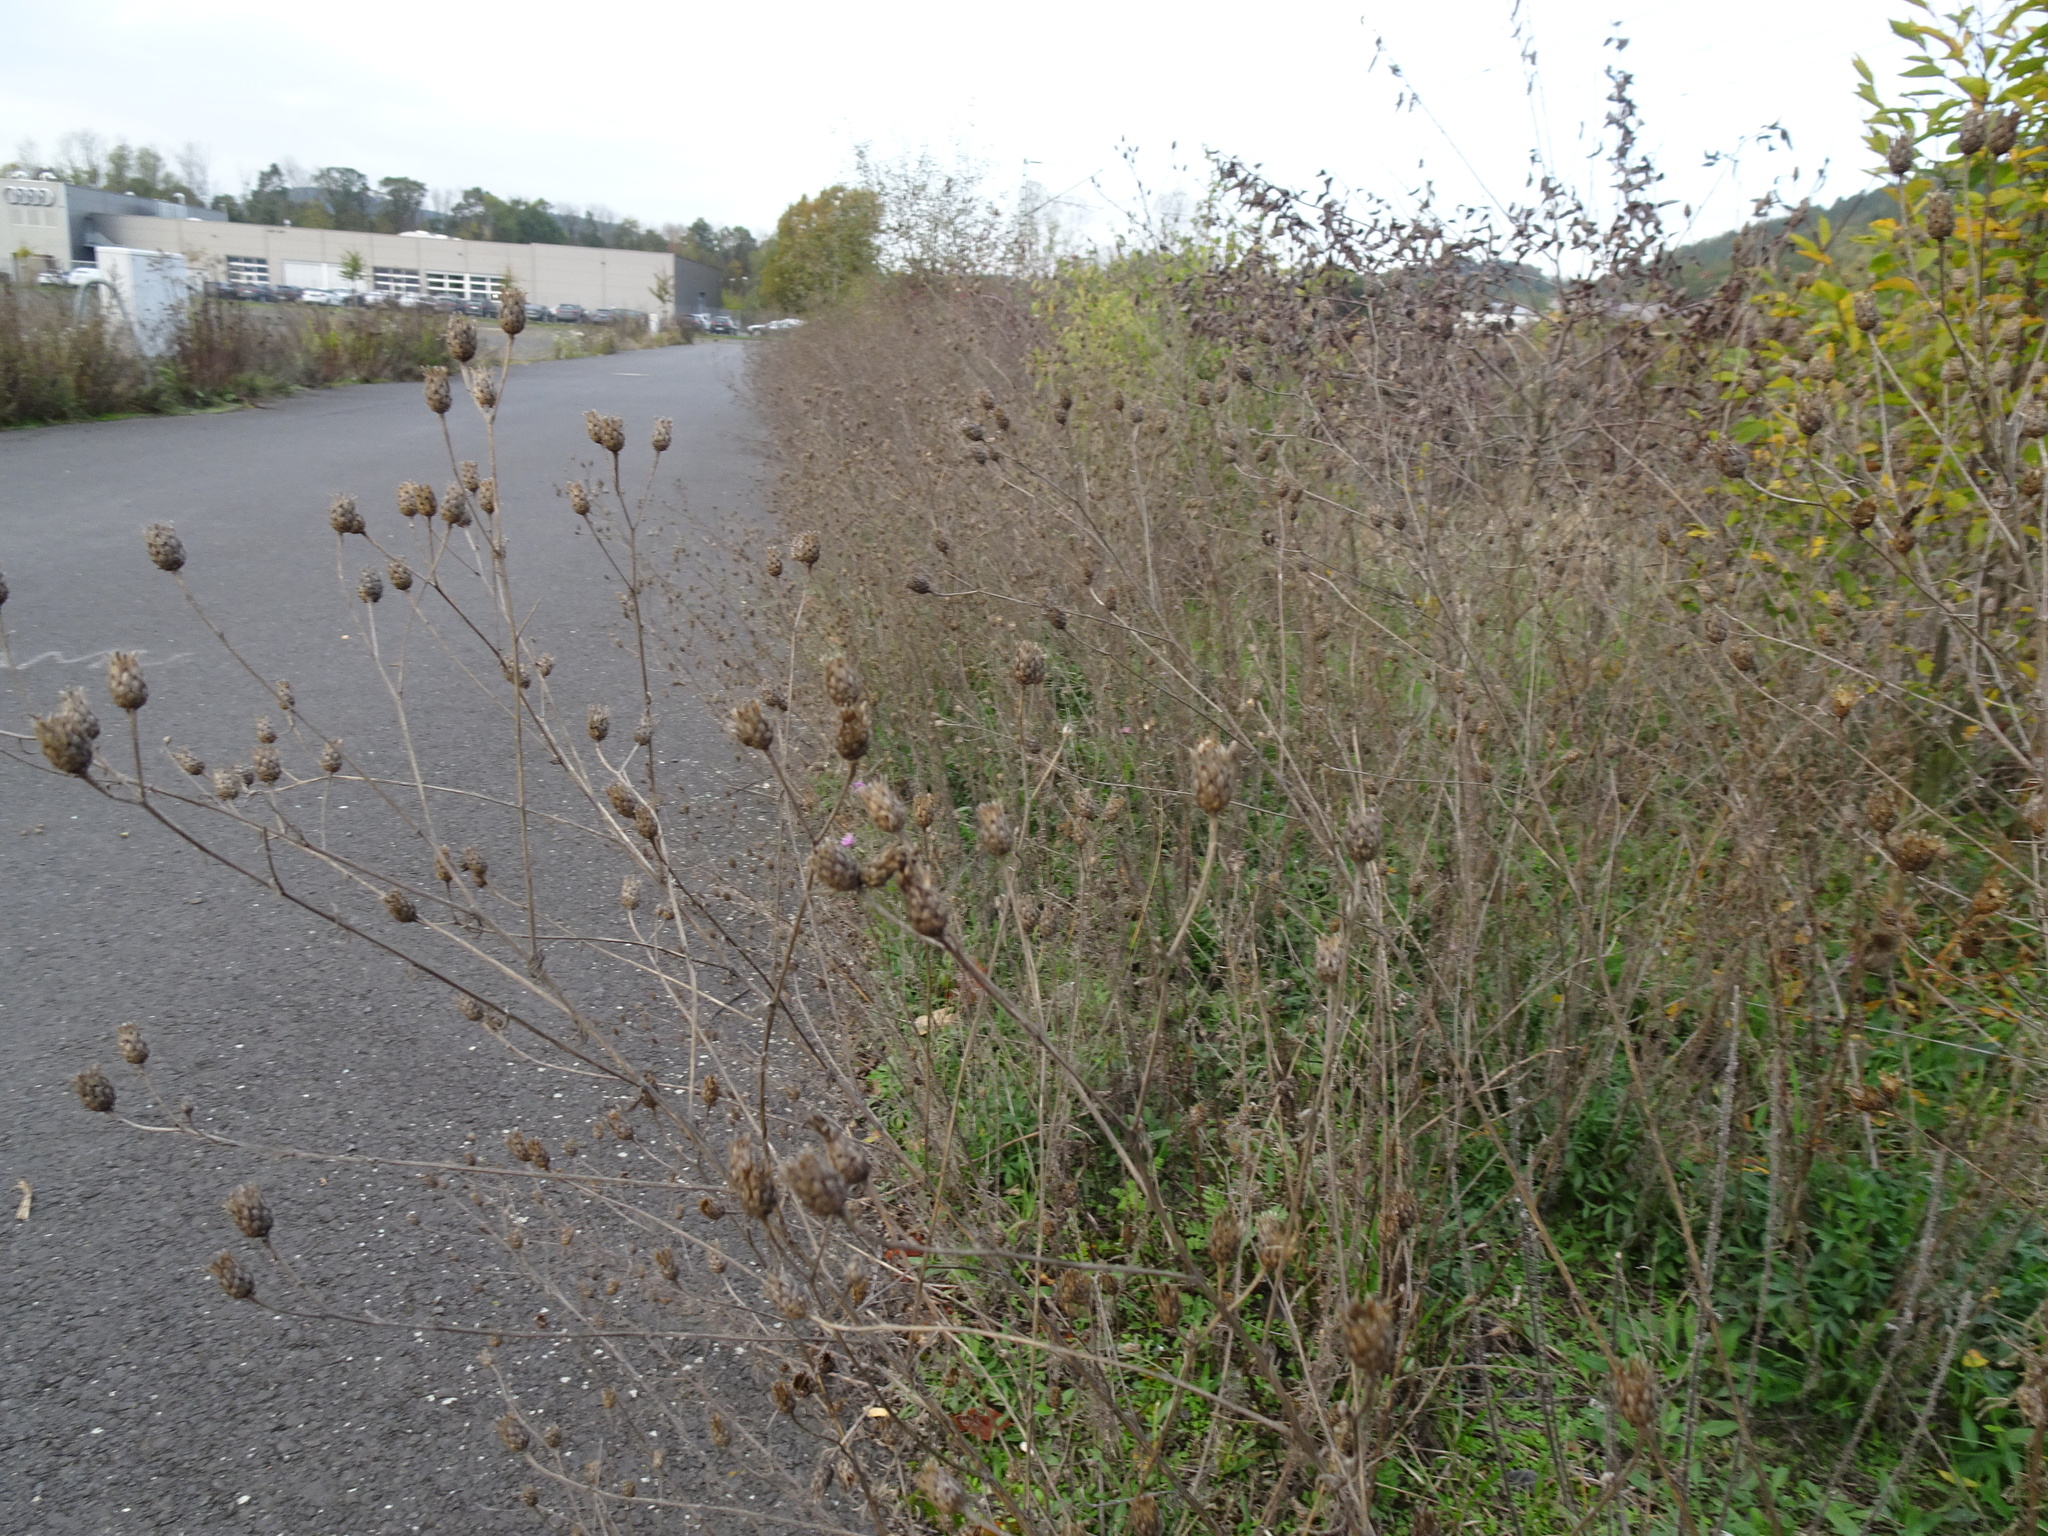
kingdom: Plantae
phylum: Tracheophyta
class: Magnoliopsida
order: Asterales
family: Asteraceae
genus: Centaurea
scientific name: Centaurea stoebe
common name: Spotted knapweed
